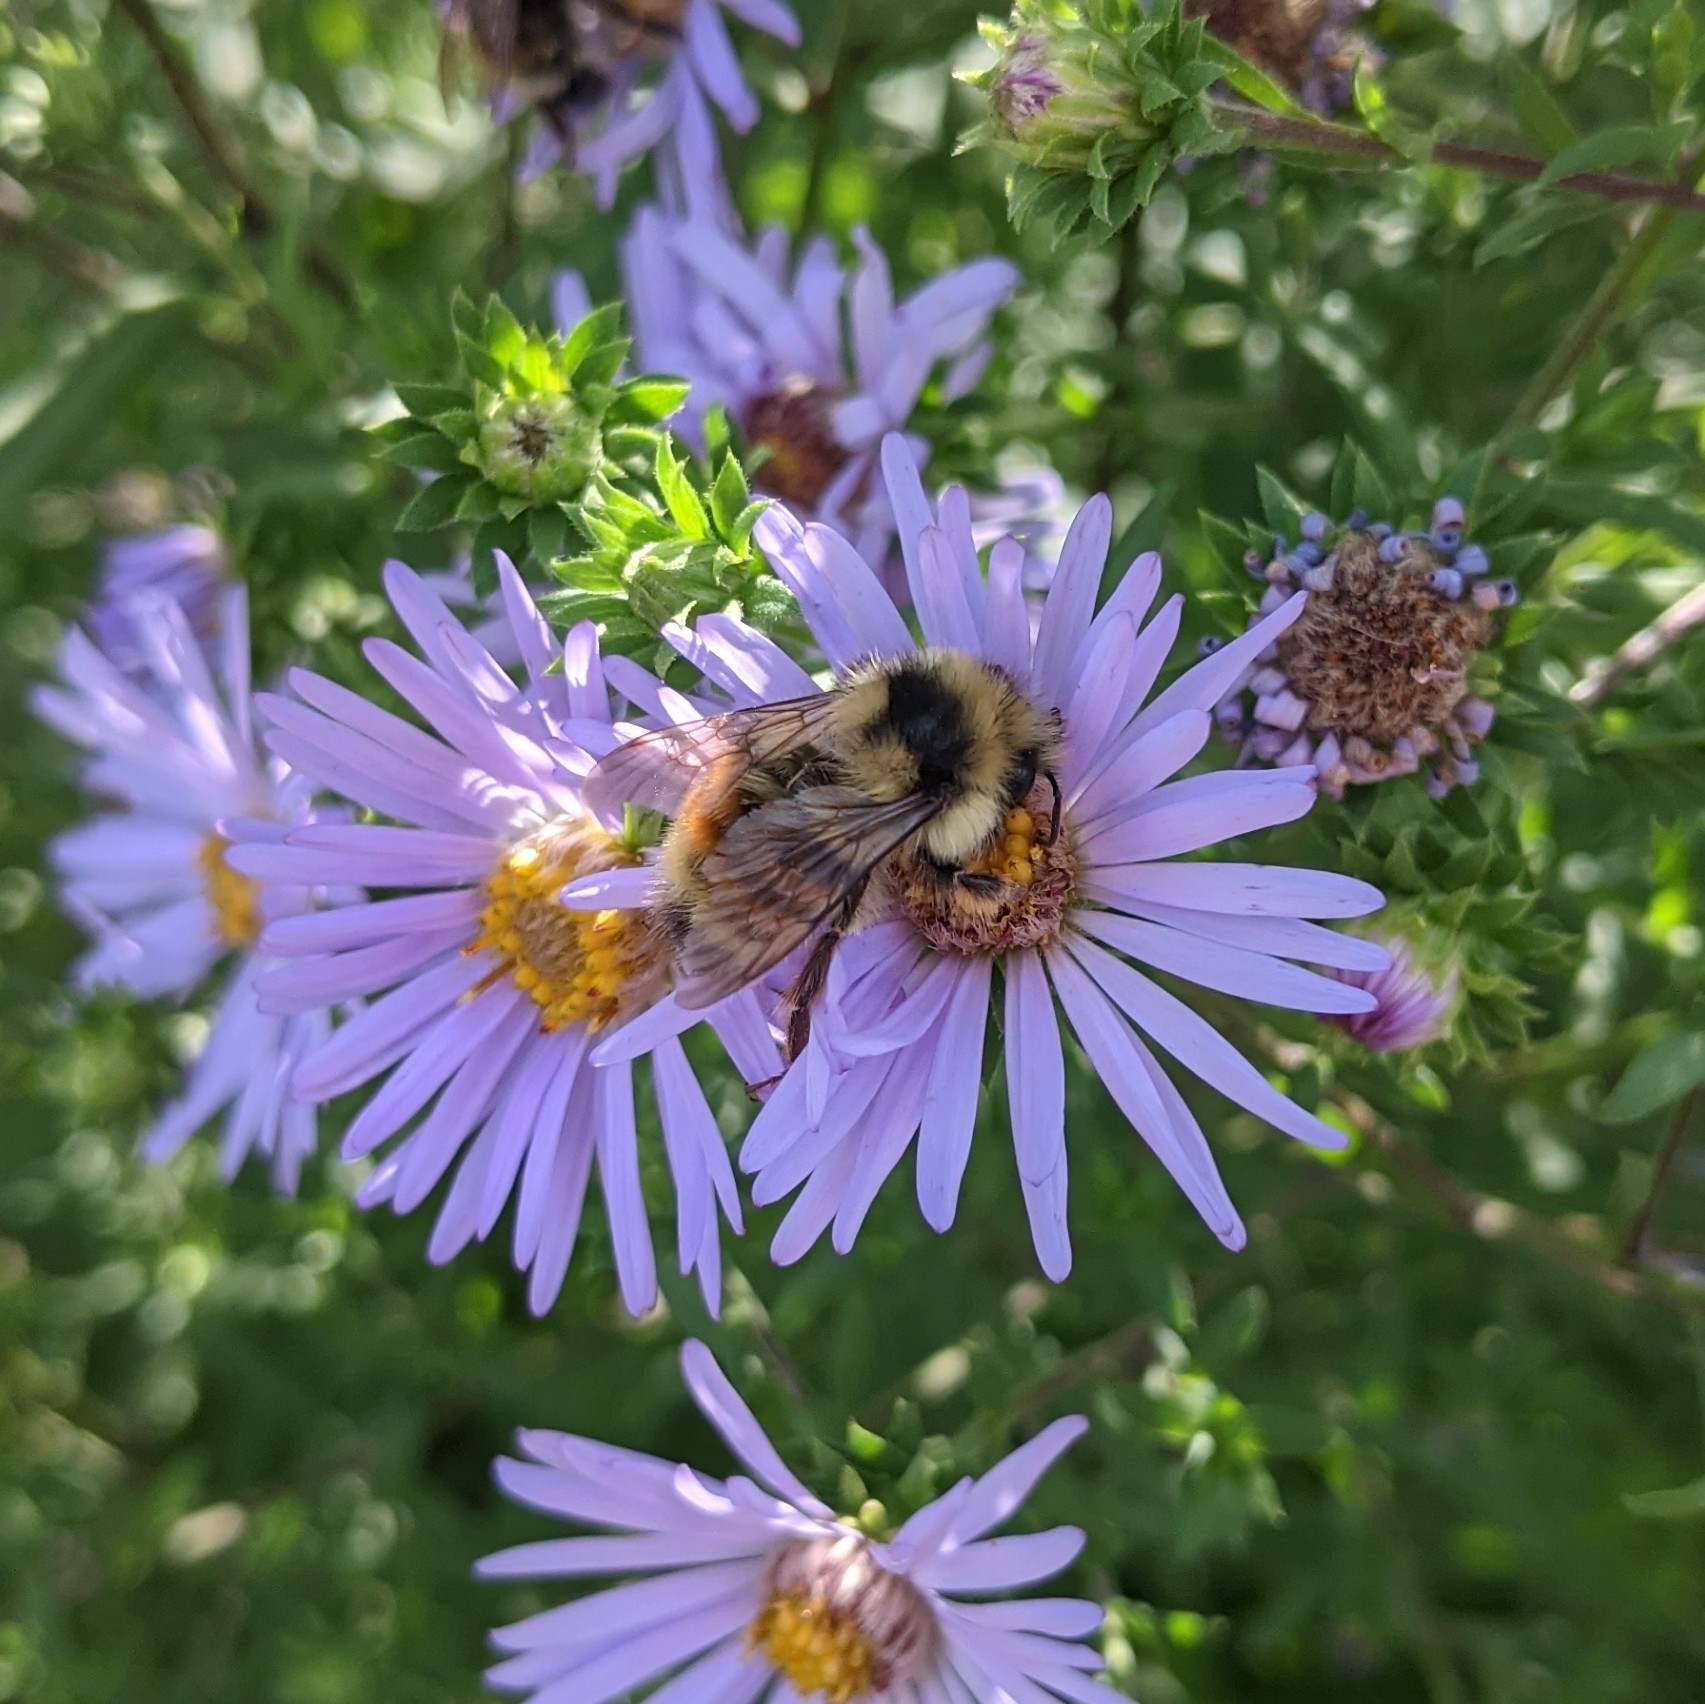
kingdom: Animalia
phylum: Arthropoda
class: Insecta
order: Hymenoptera
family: Apidae
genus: Bombus
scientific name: Bombus vancouverensis
